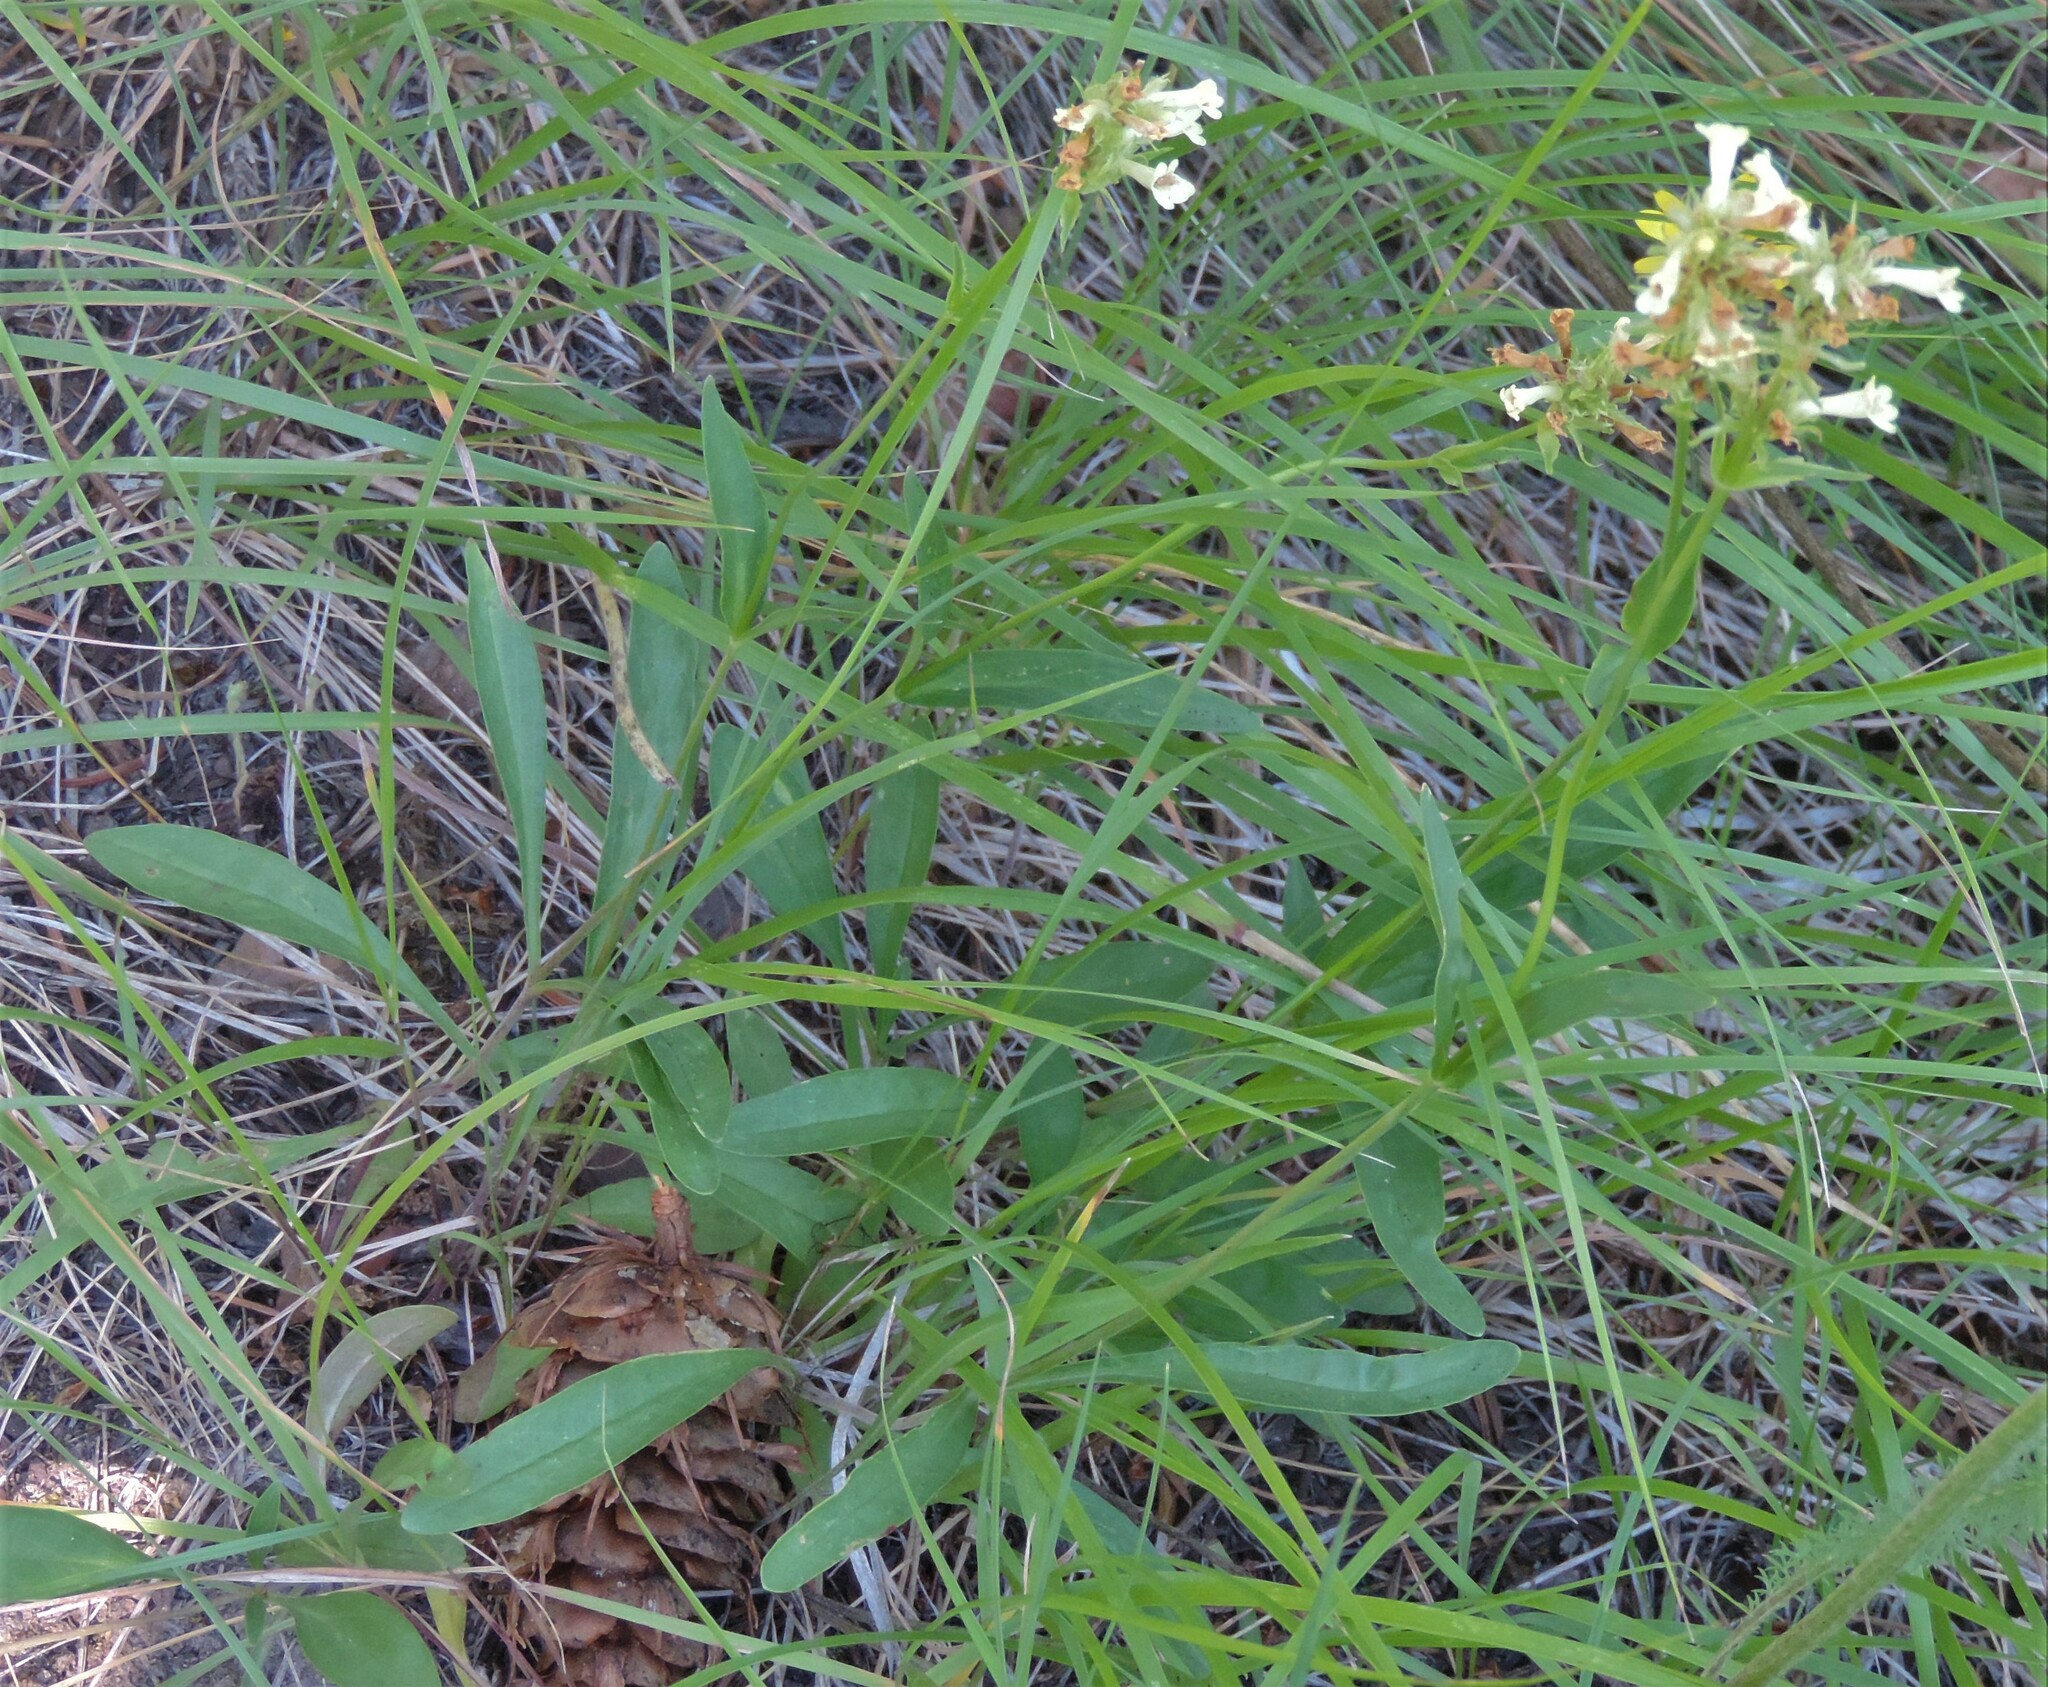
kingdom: Plantae
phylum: Tracheophyta
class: Magnoliopsida
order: Lamiales
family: Plantaginaceae
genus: Penstemon
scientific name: Penstemon confertus
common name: Lesser yellow beardtongue
